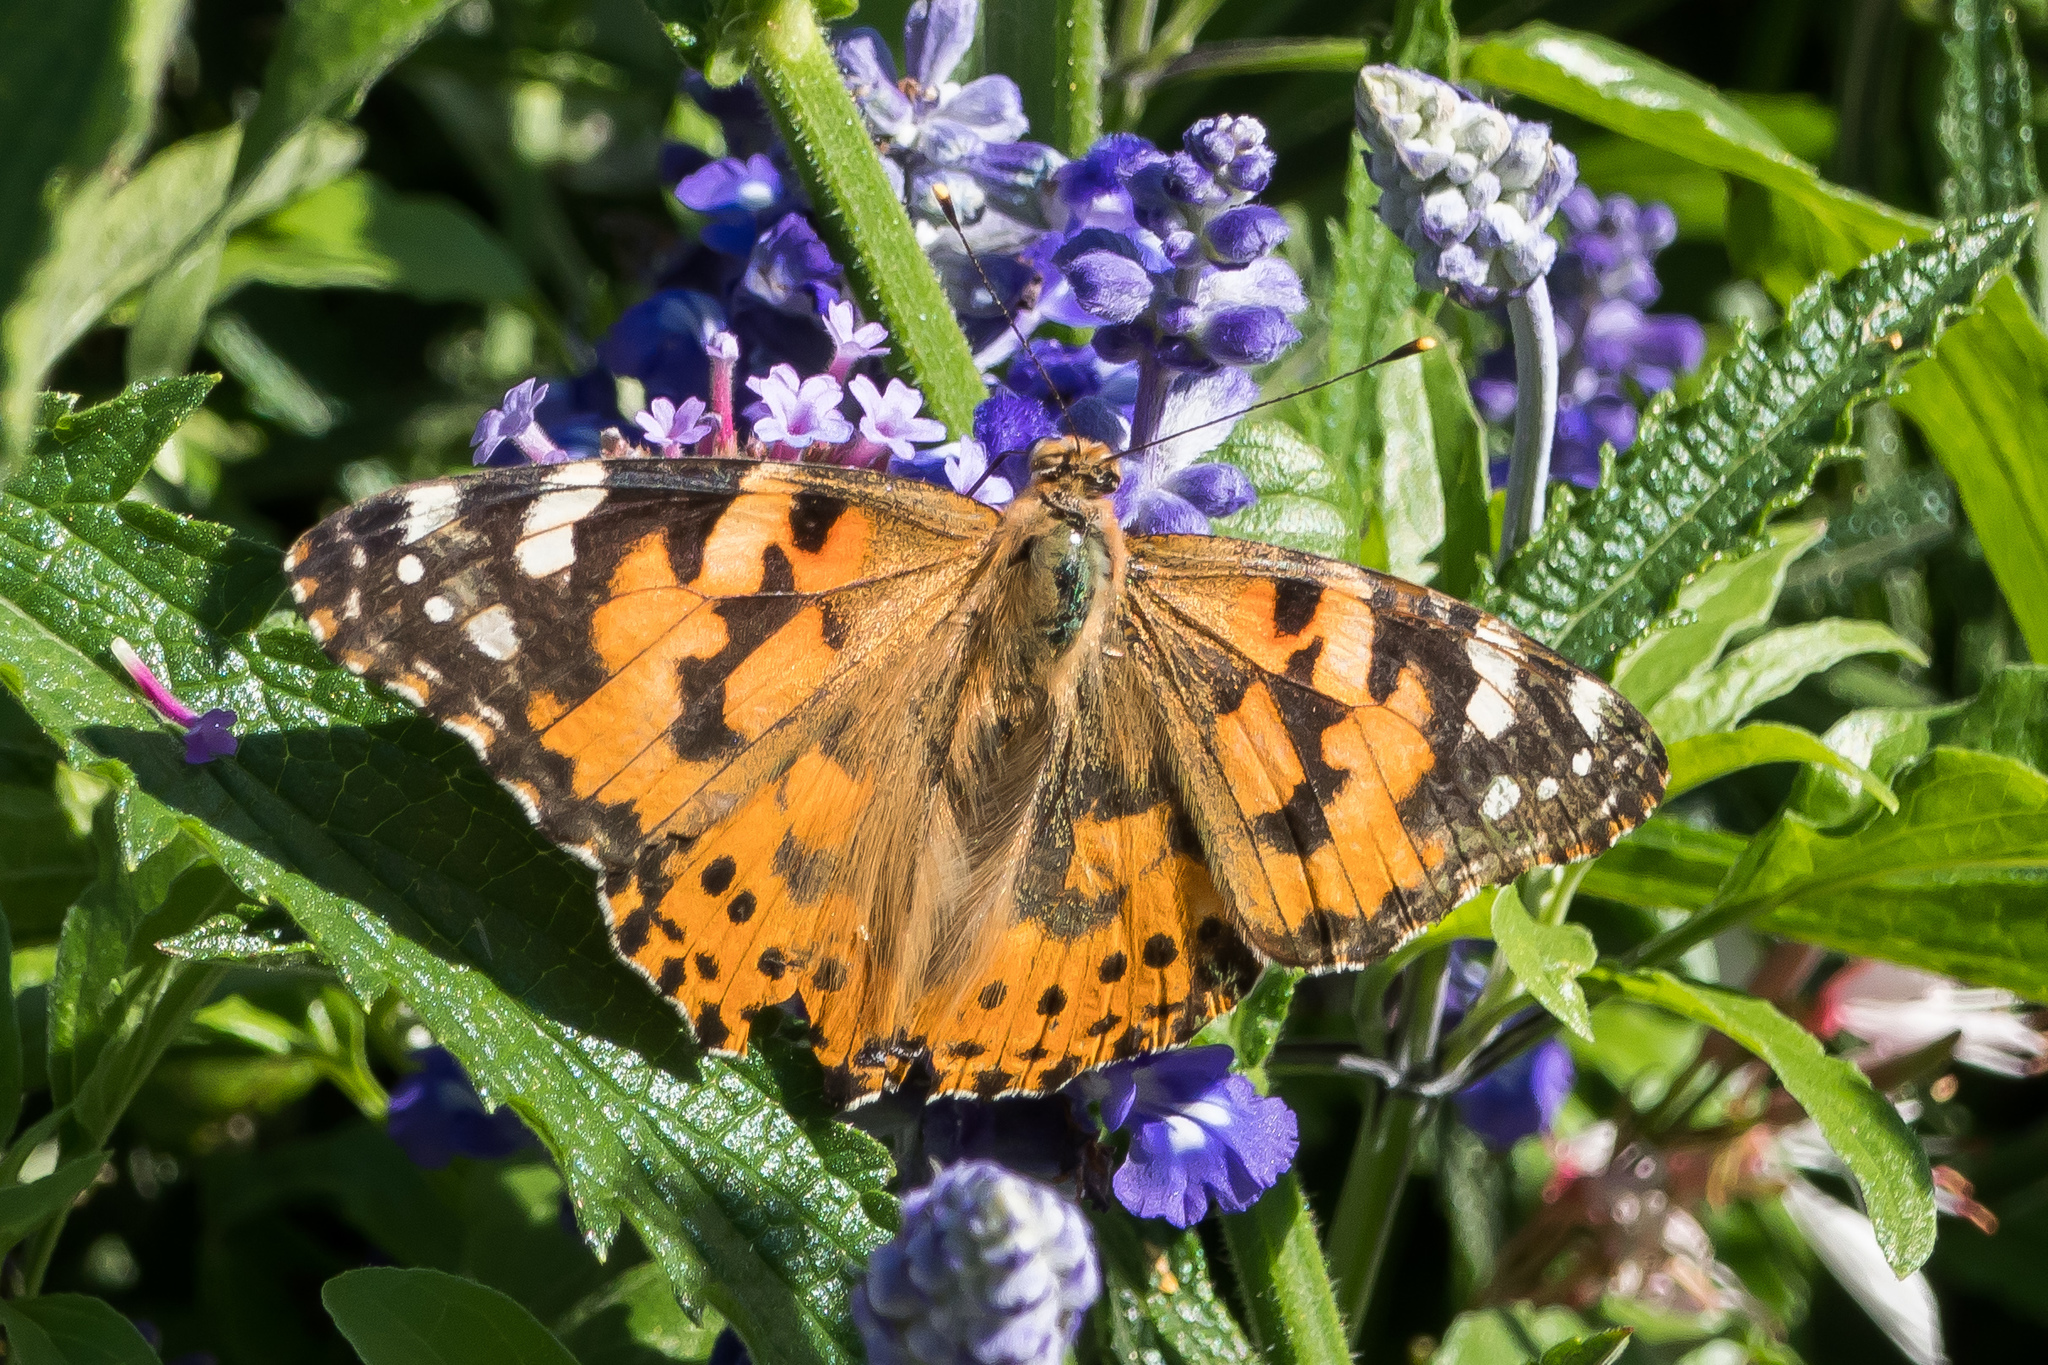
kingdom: Animalia
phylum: Arthropoda
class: Insecta
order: Lepidoptera
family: Nymphalidae
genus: Vanessa
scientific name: Vanessa cardui
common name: Painted lady
